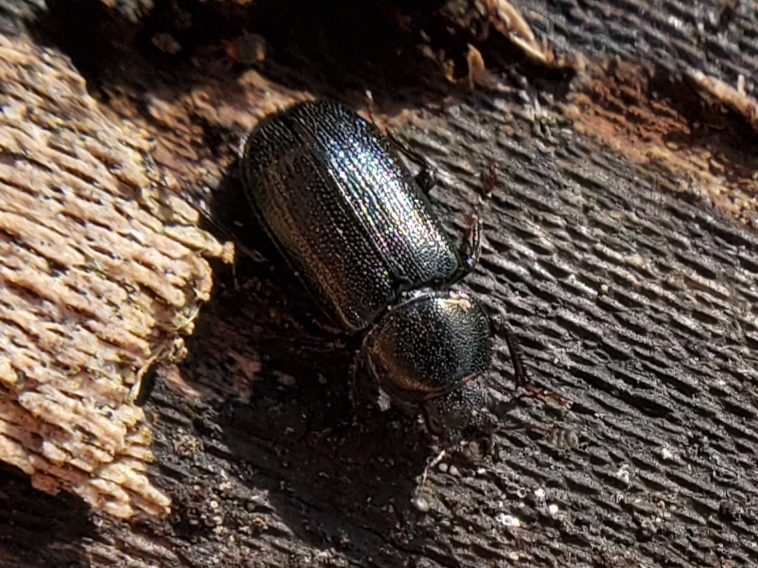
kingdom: Animalia
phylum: Arthropoda
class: Insecta
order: Coleoptera
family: Lucanidae
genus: Platycerus
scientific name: Platycerus quercus
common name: Oak stag beetle
